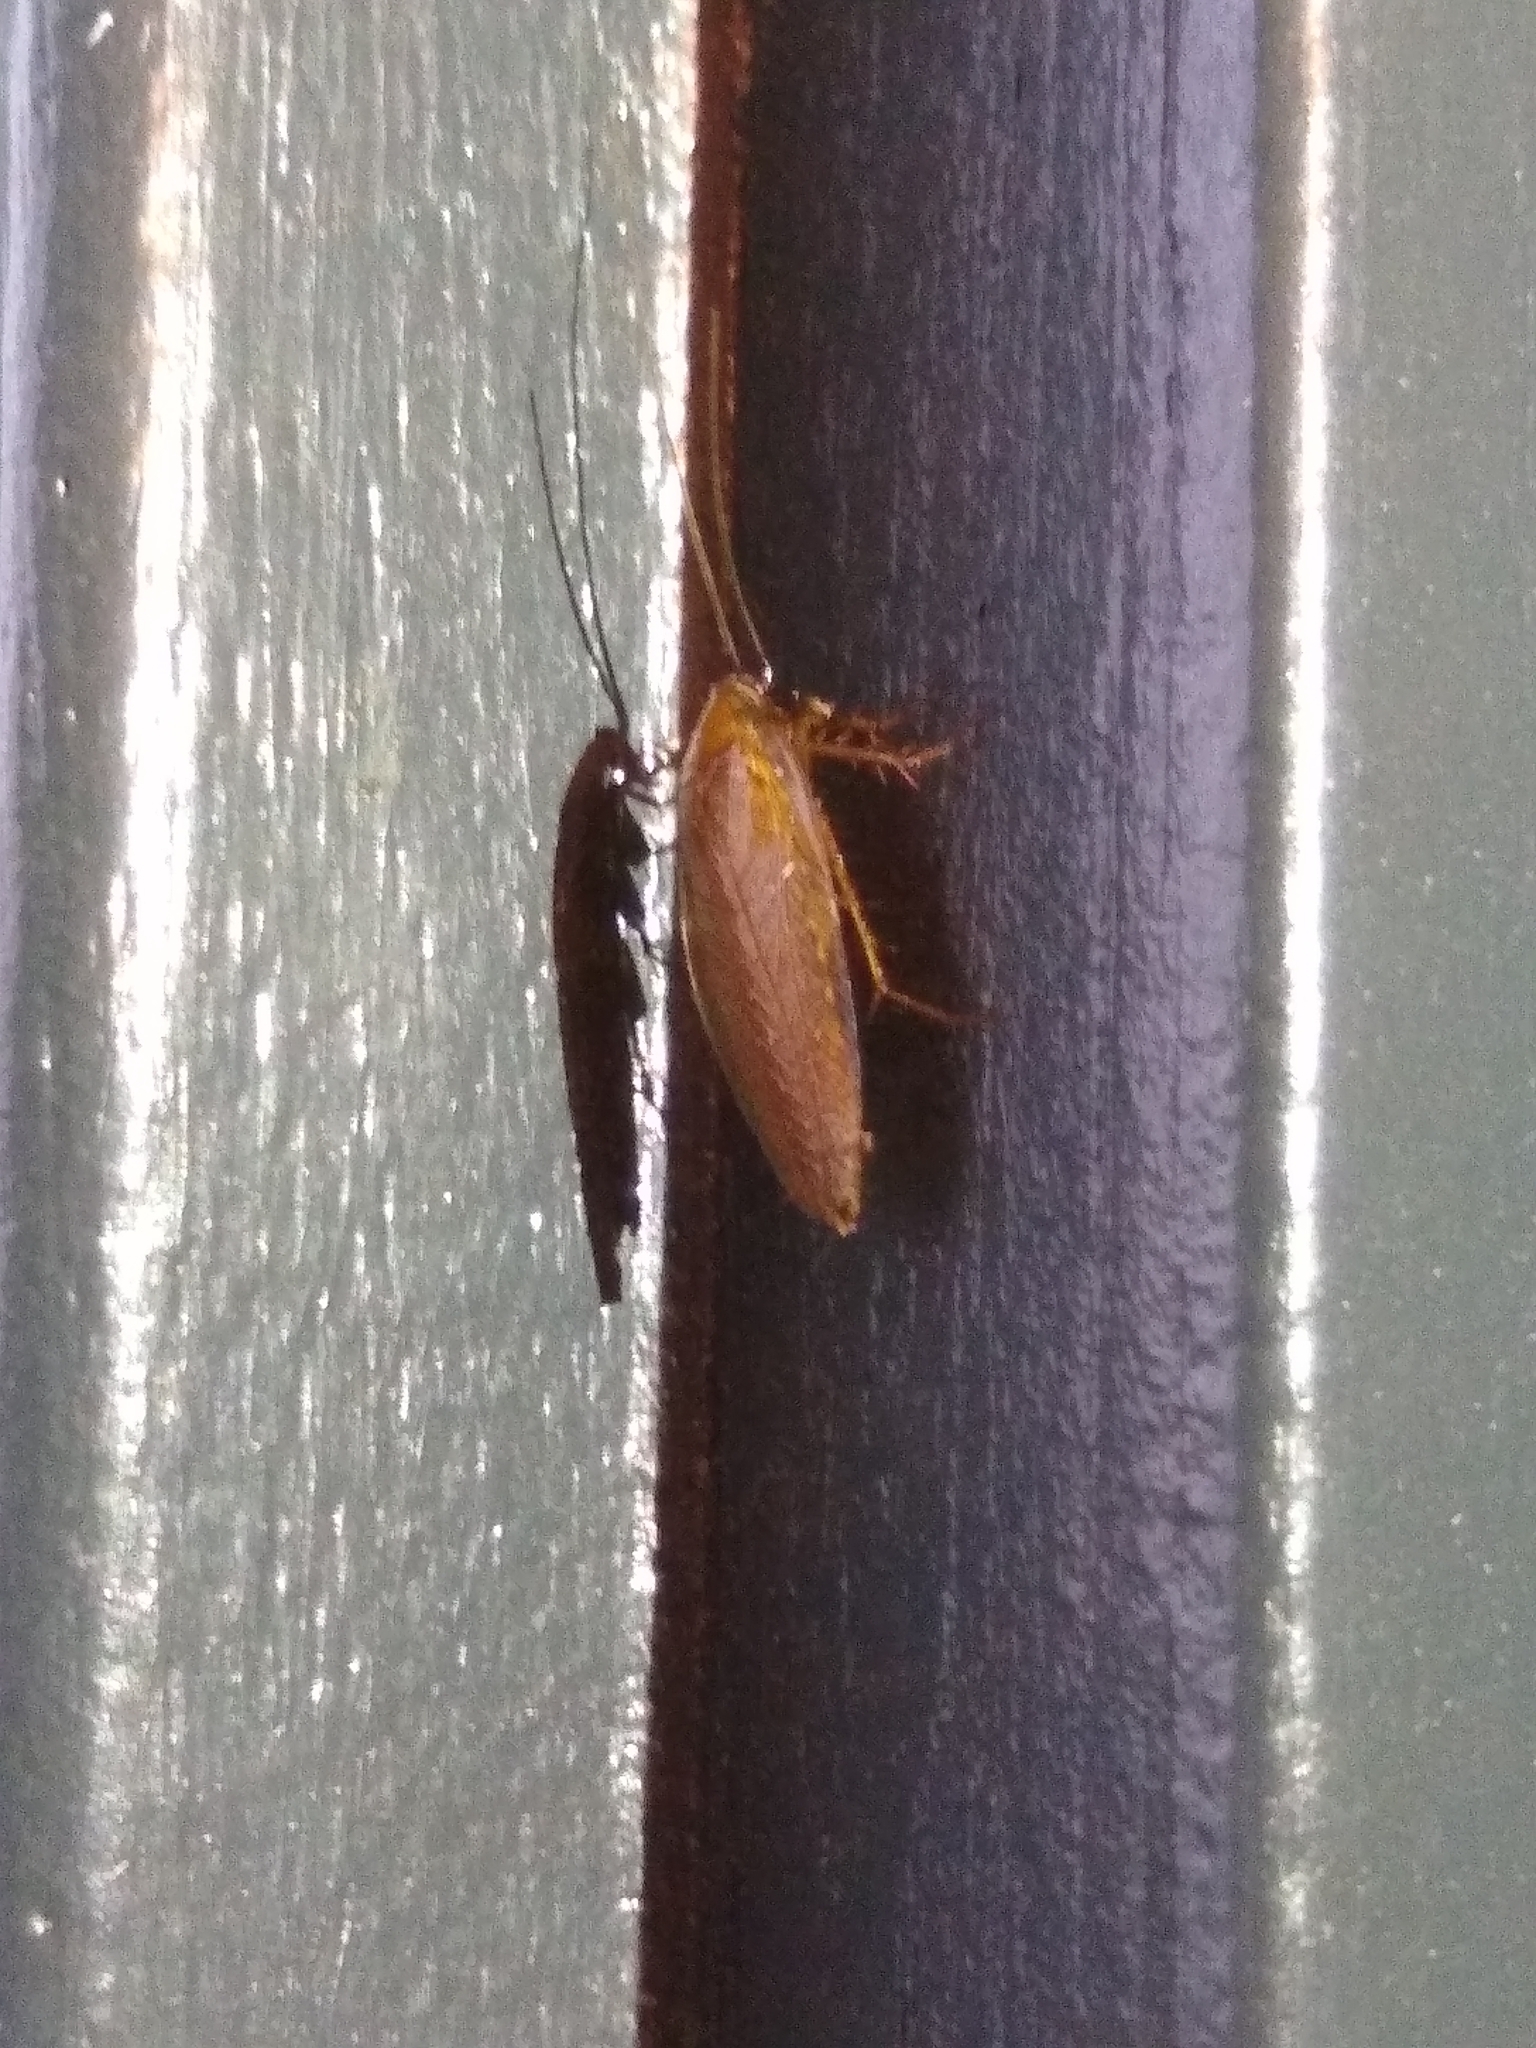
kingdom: Animalia
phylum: Arthropoda
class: Insecta
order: Blattodea
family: Ectobiidae
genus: Ectobius
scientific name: Ectobius vittiventris
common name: Garden cockroach
